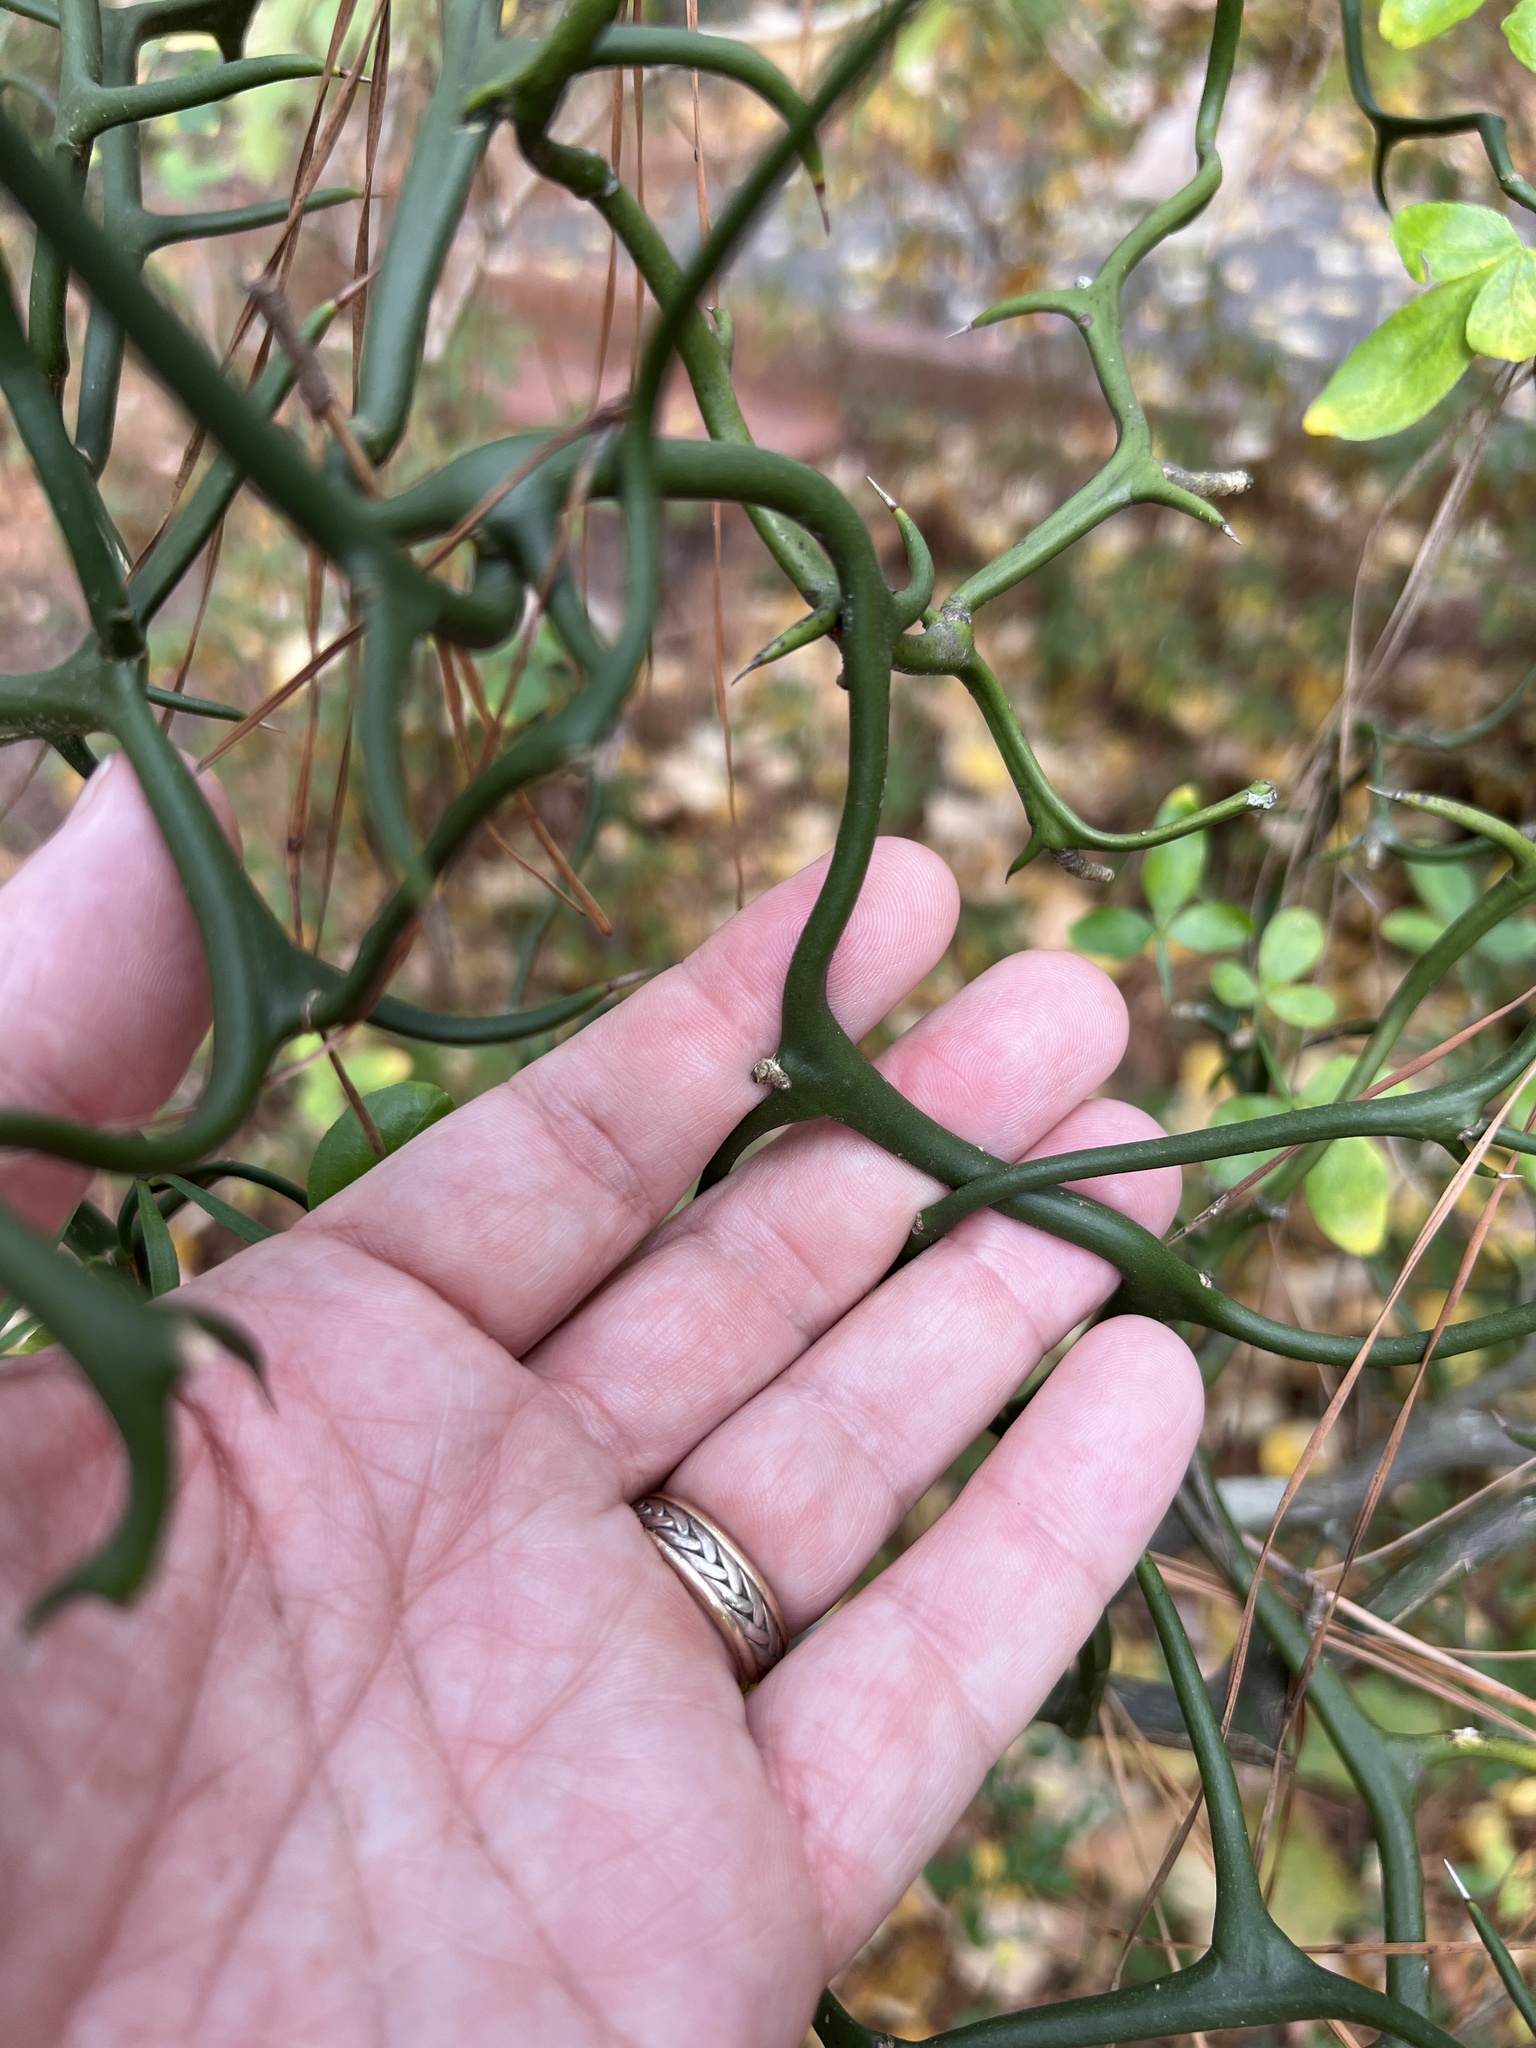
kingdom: Plantae
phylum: Tracheophyta
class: Magnoliopsida
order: Sapindales
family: Rutaceae
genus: Citrus
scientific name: Citrus trifoliata
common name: Japanese bitter-orange
